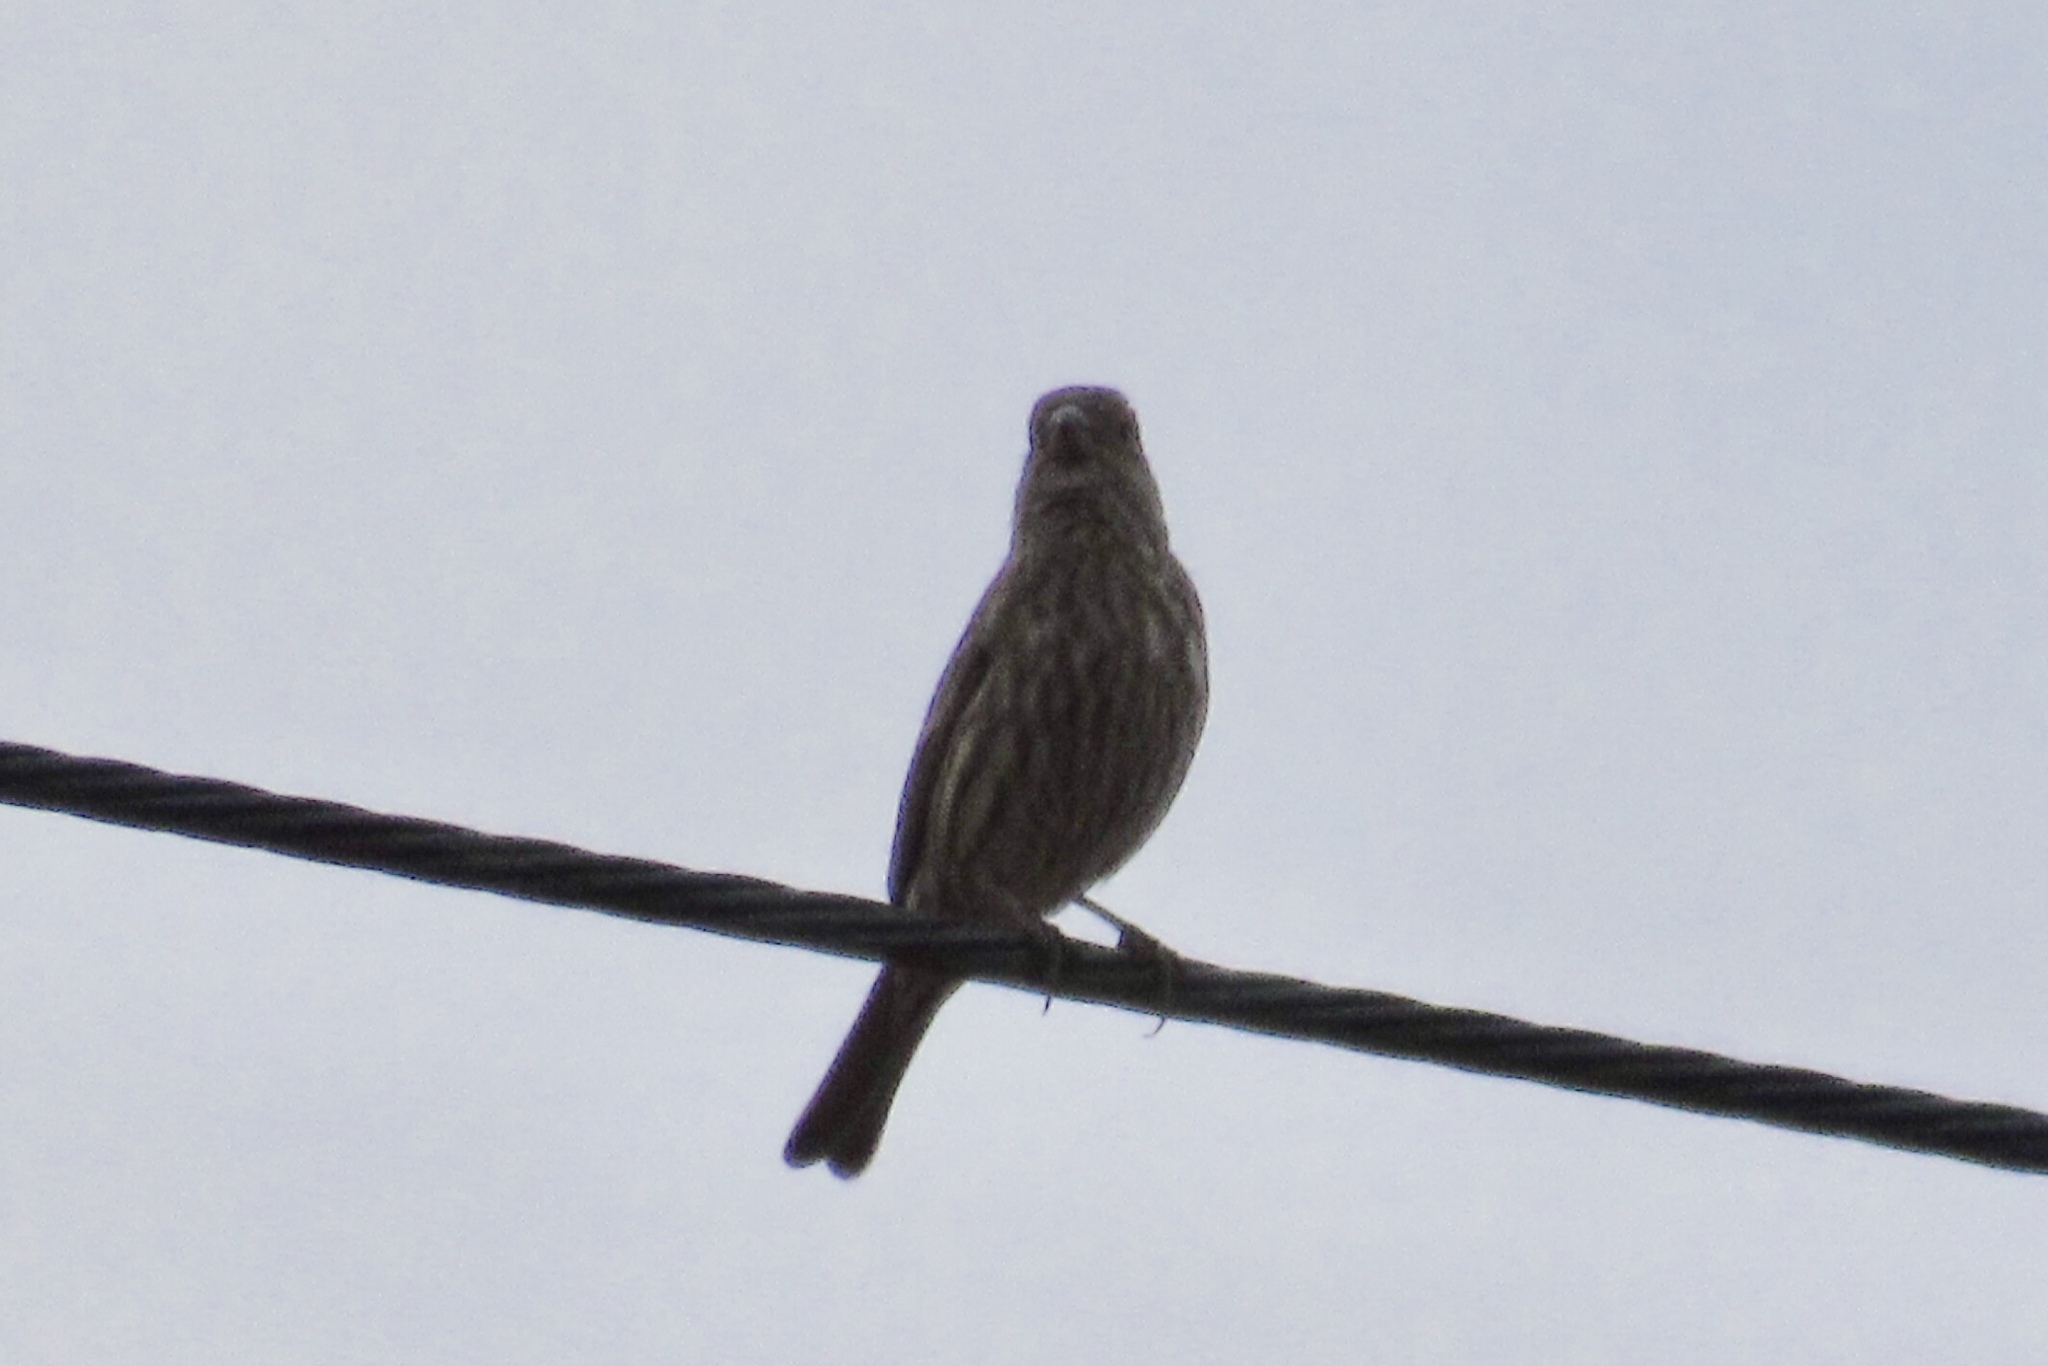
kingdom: Animalia
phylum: Chordata
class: Aves
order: Passeriformes
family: Fringillidae
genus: Haemorhous
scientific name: Haemorhous mexicanus
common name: House finch
